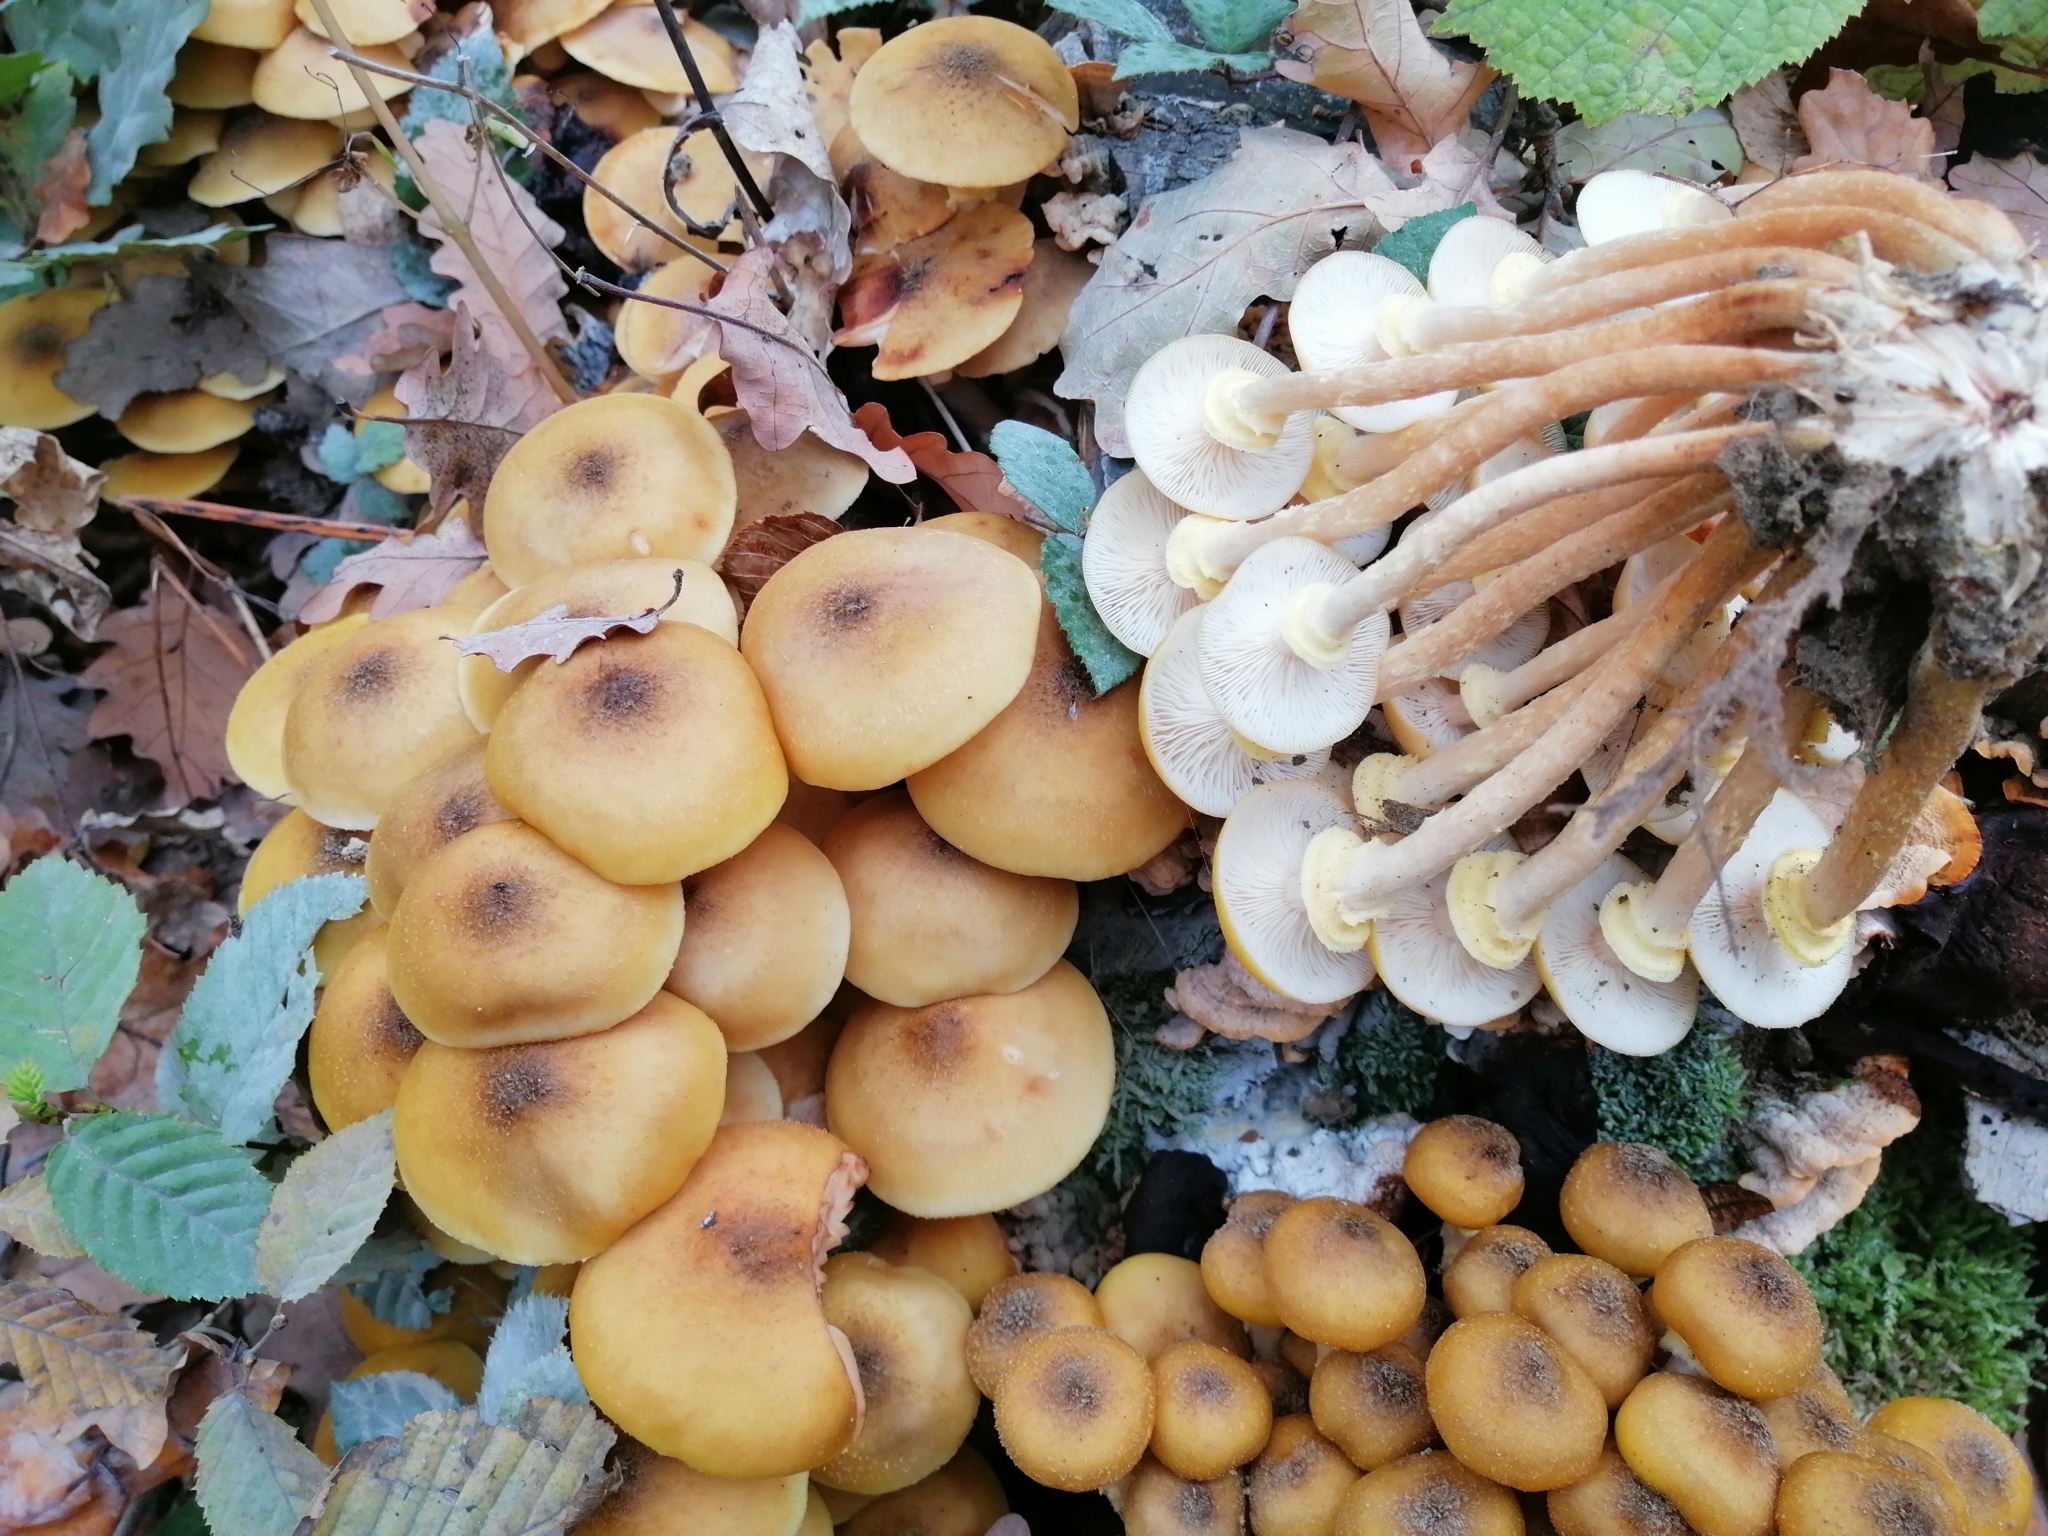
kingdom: Fungi
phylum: Basidiomycota
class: Agaricomycetes
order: Agaricales
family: Physalacriaceae
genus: Armillaria
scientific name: Armillaria mellea
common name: Honey fungus
